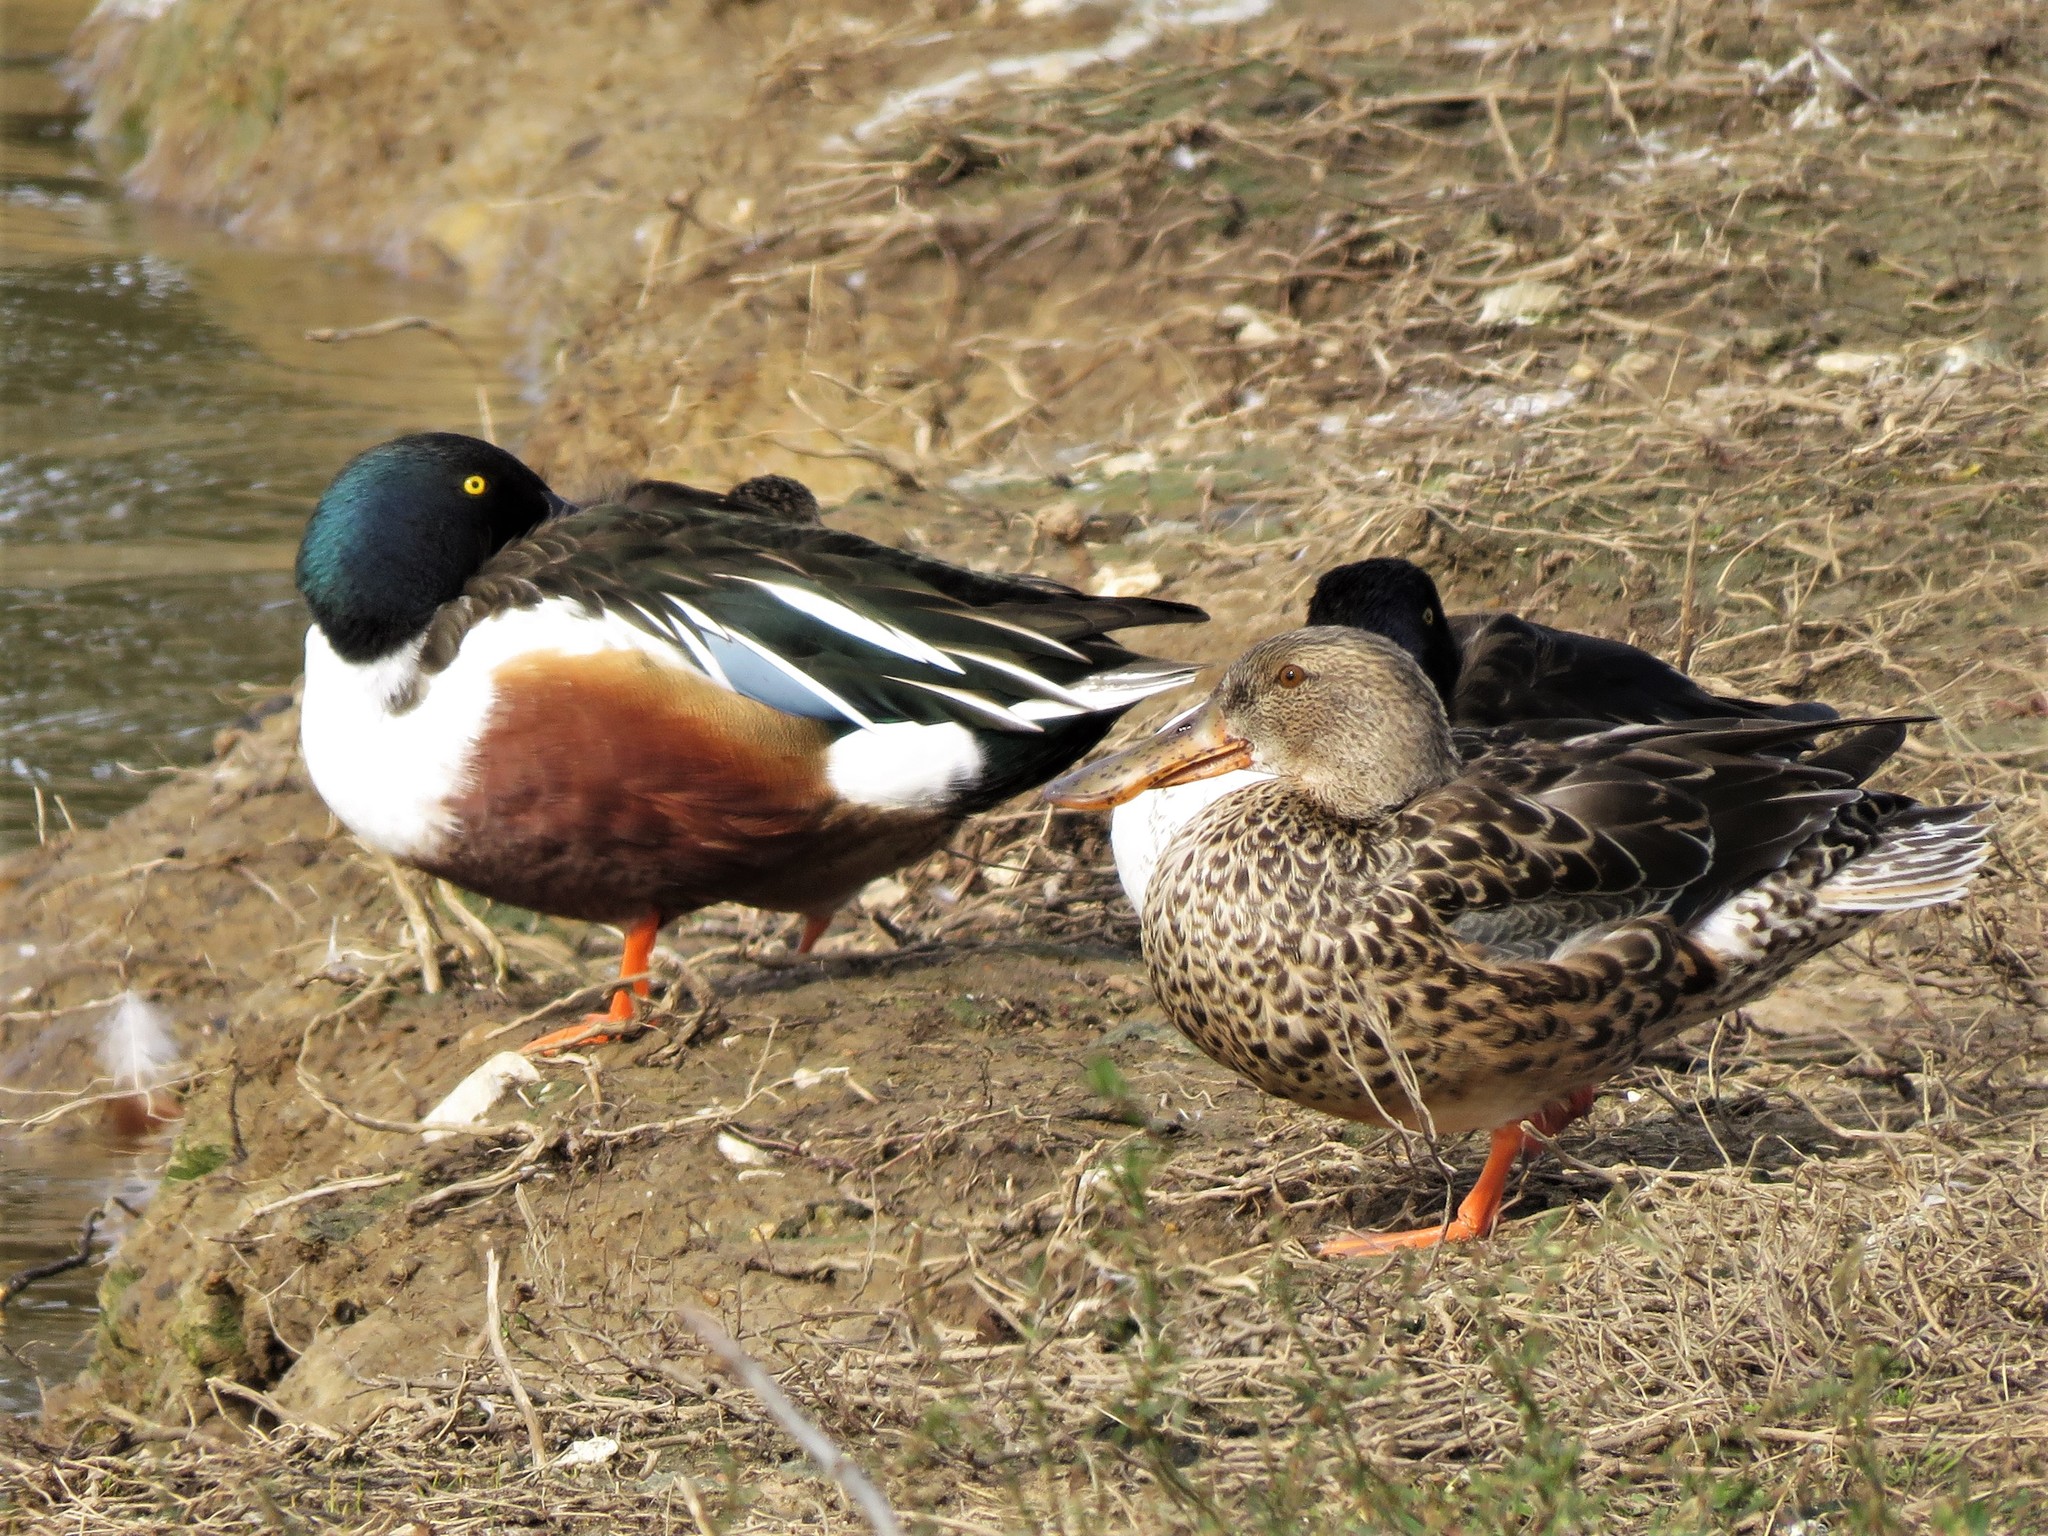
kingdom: Animalia
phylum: Chordata
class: Aves
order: Anseriformes
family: Anatidae
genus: Spatula
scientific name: Spatula clypeata
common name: Northern shoveler
